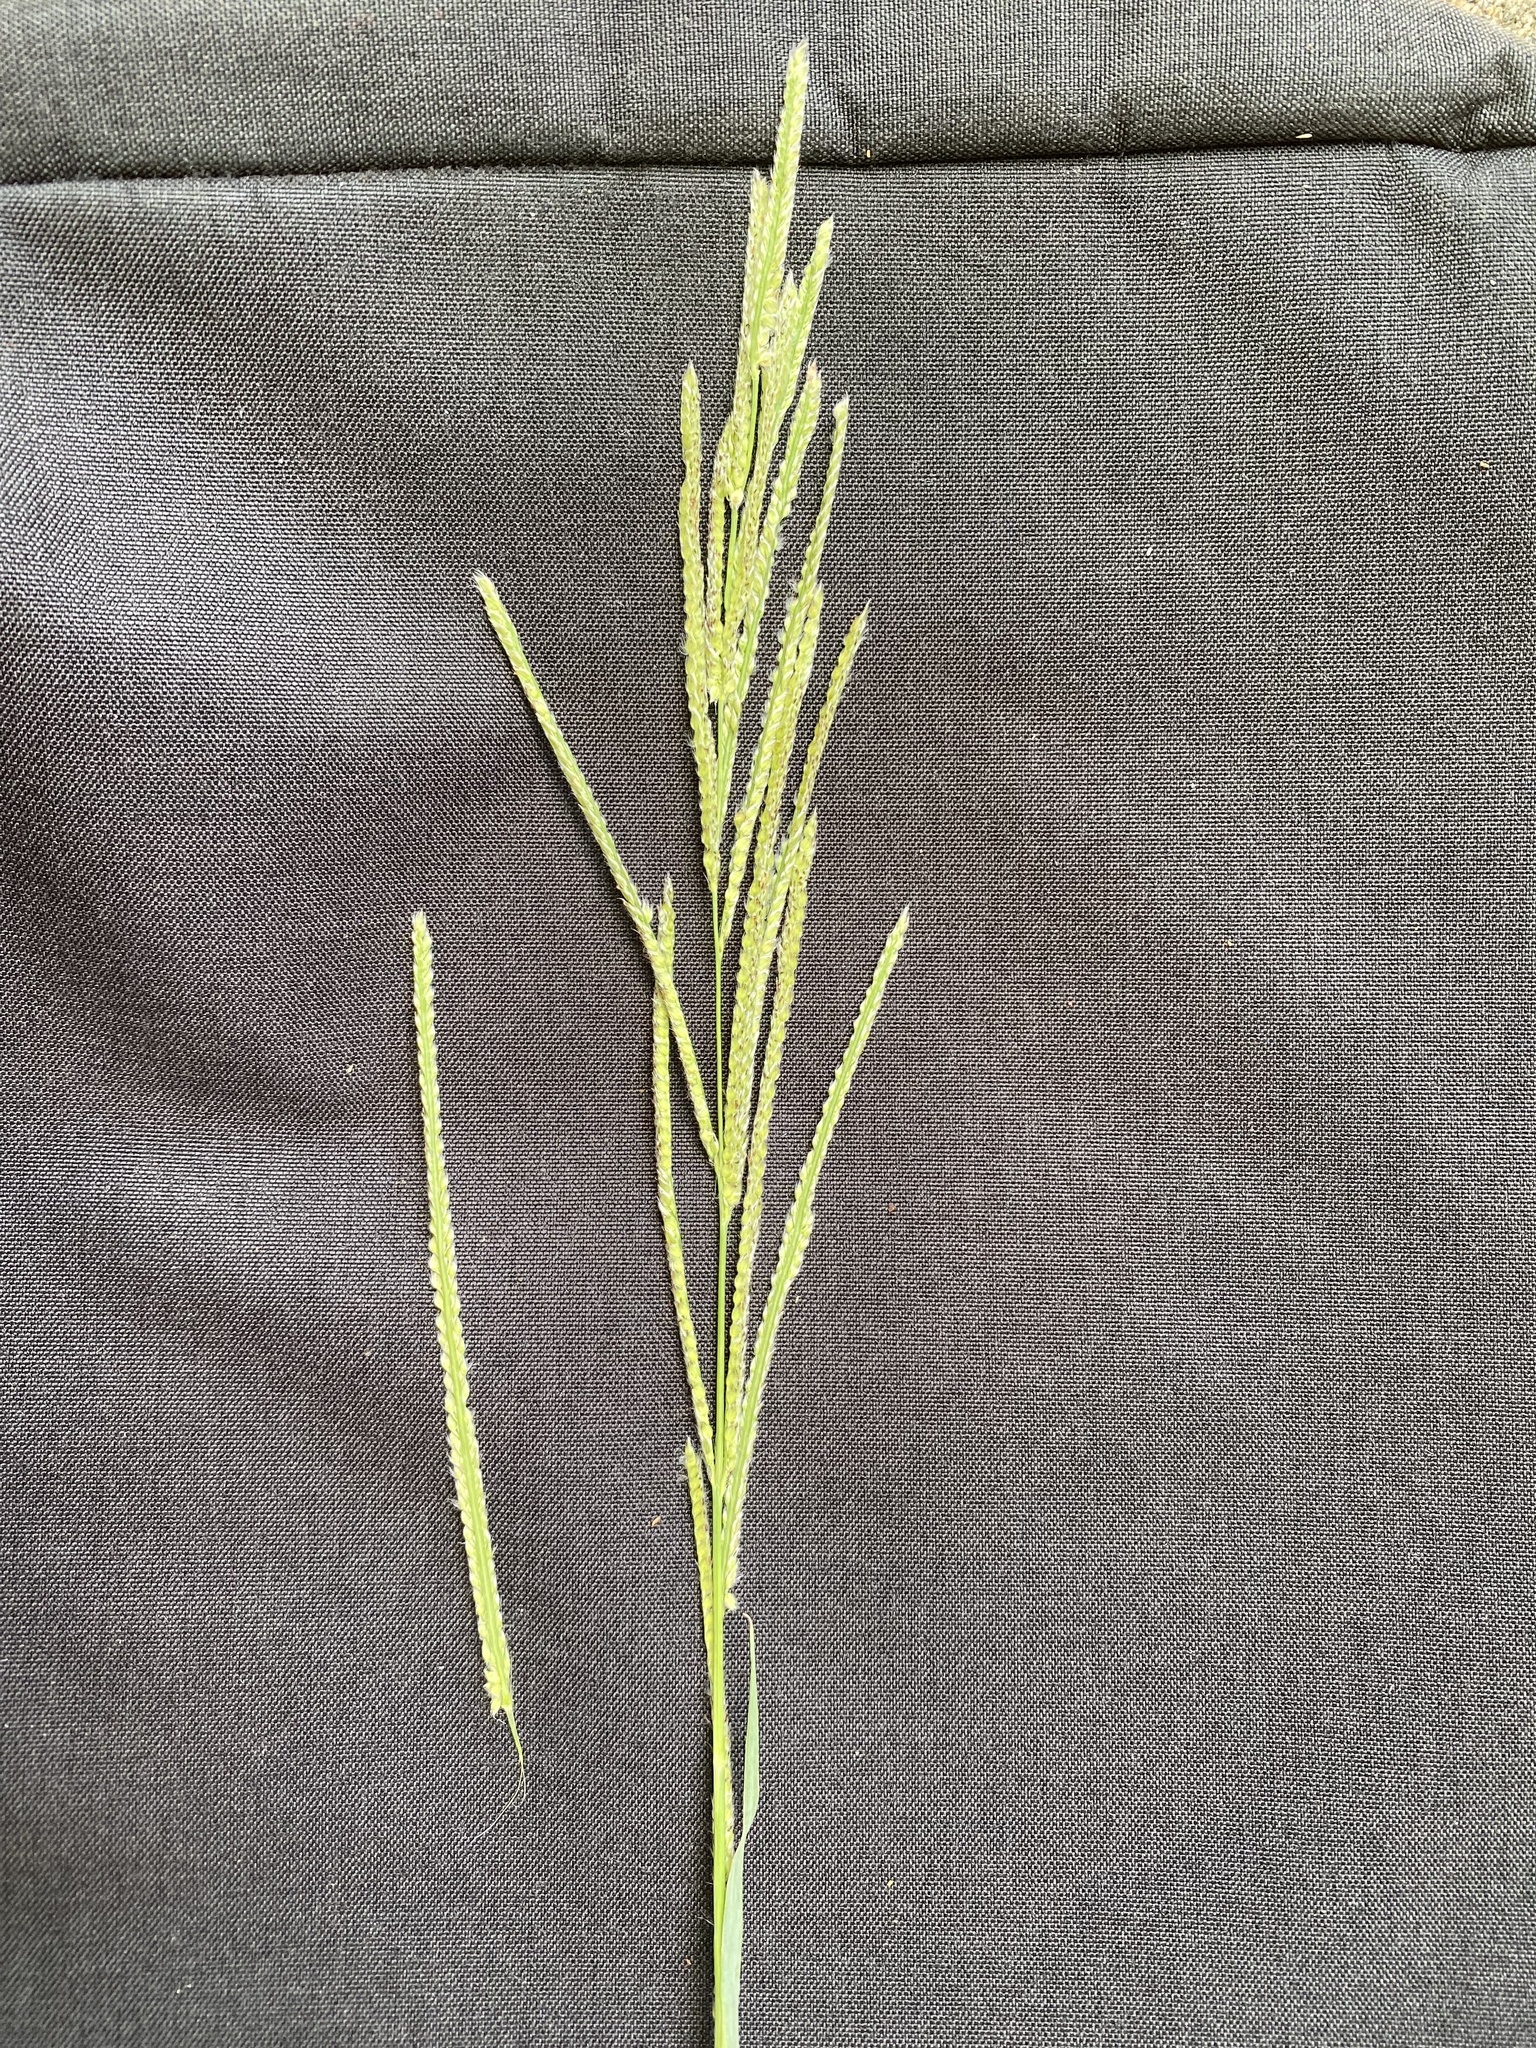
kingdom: Plantae
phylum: Tracheophyta
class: Liliopsida
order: Poales
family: Poaceae
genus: Paspalum
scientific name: Paspalum urvillei
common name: Vasey's grass
